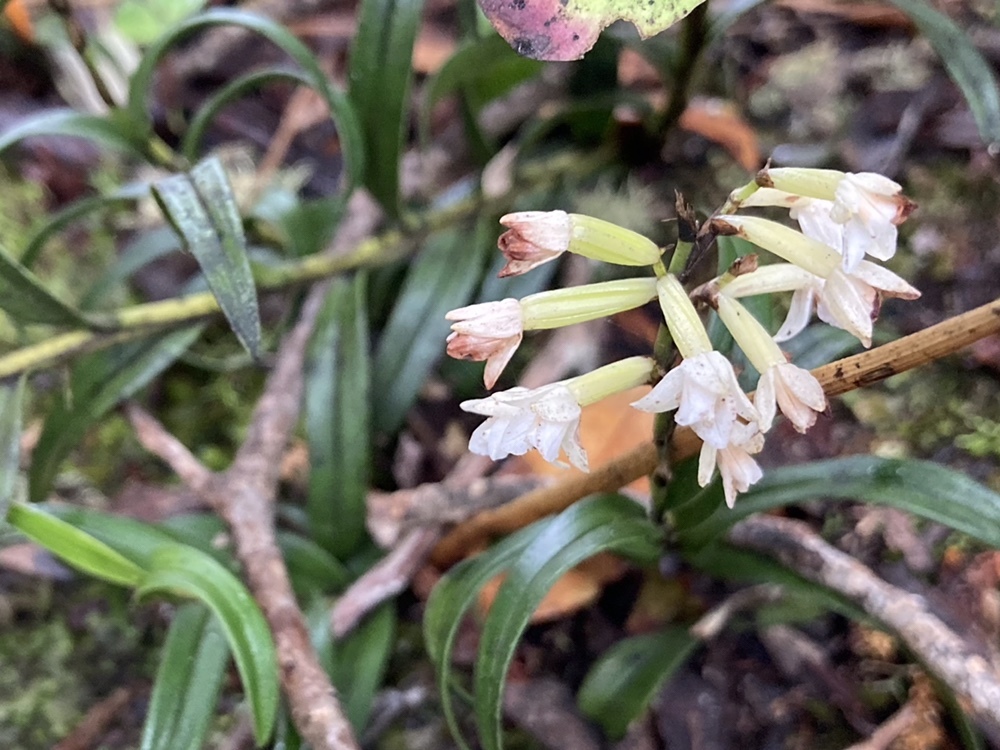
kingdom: Plantae
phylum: Tracheophyta
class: Liliopsida
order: Asparagales
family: Orchidaceae
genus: Earina
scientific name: Earina autumnalis
